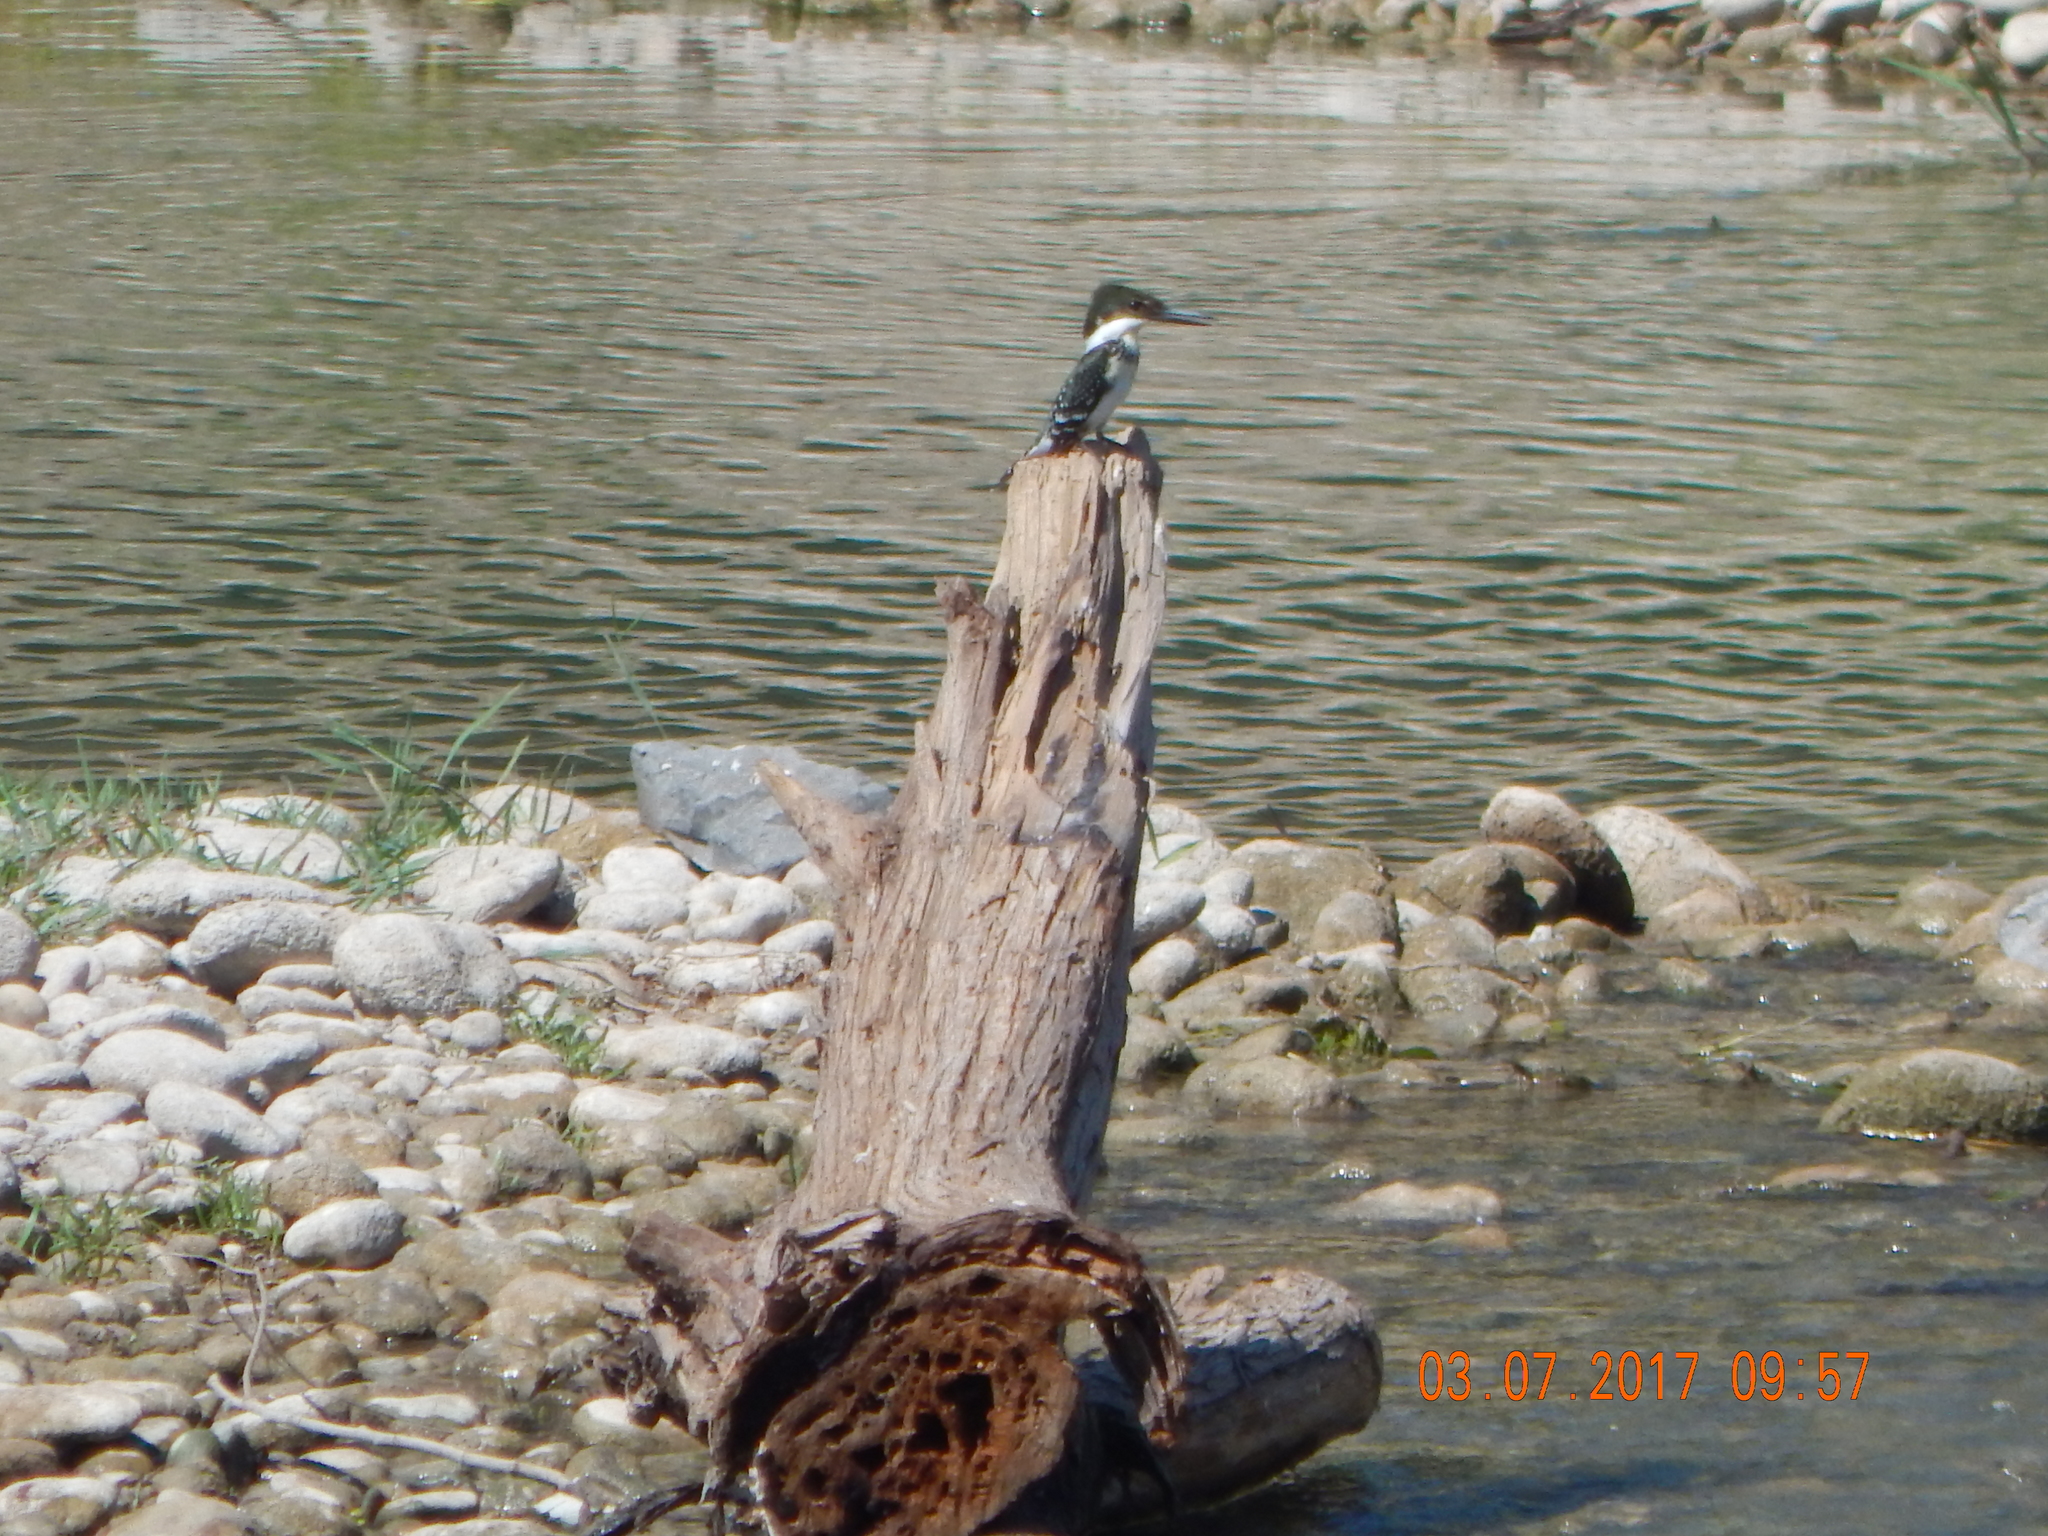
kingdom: Animalia
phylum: Chordata
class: Aves
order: Coraciiformes
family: Alcedinidae
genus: Chloroceryle
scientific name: Chloroceryle americana
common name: Green kingfisher
